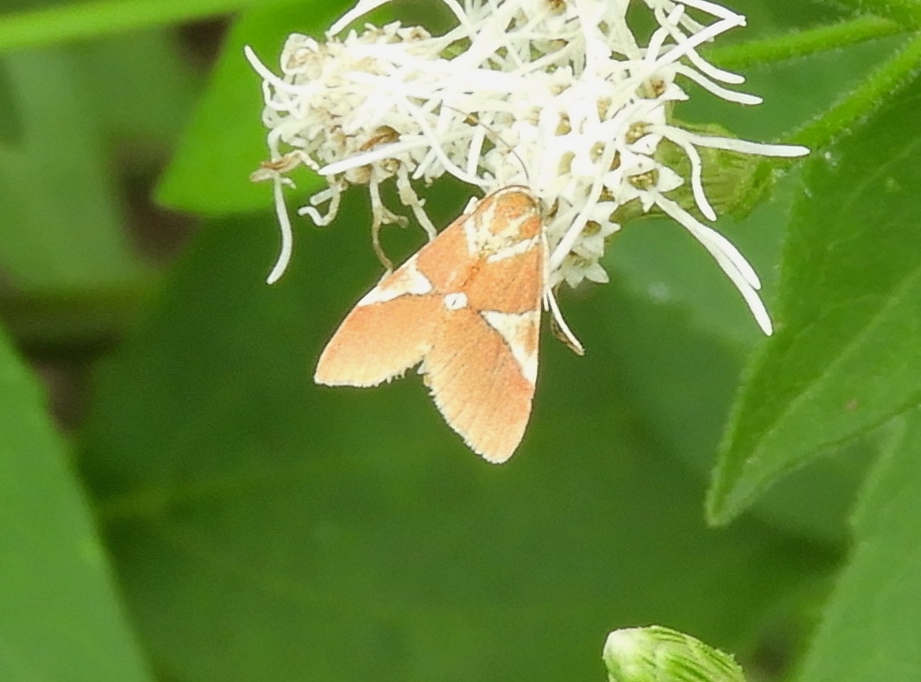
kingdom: Animalia
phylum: Arthropoda
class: Insecta
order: Lepidoptera
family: Crambidae
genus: Jativa
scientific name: Jativa castanealis
